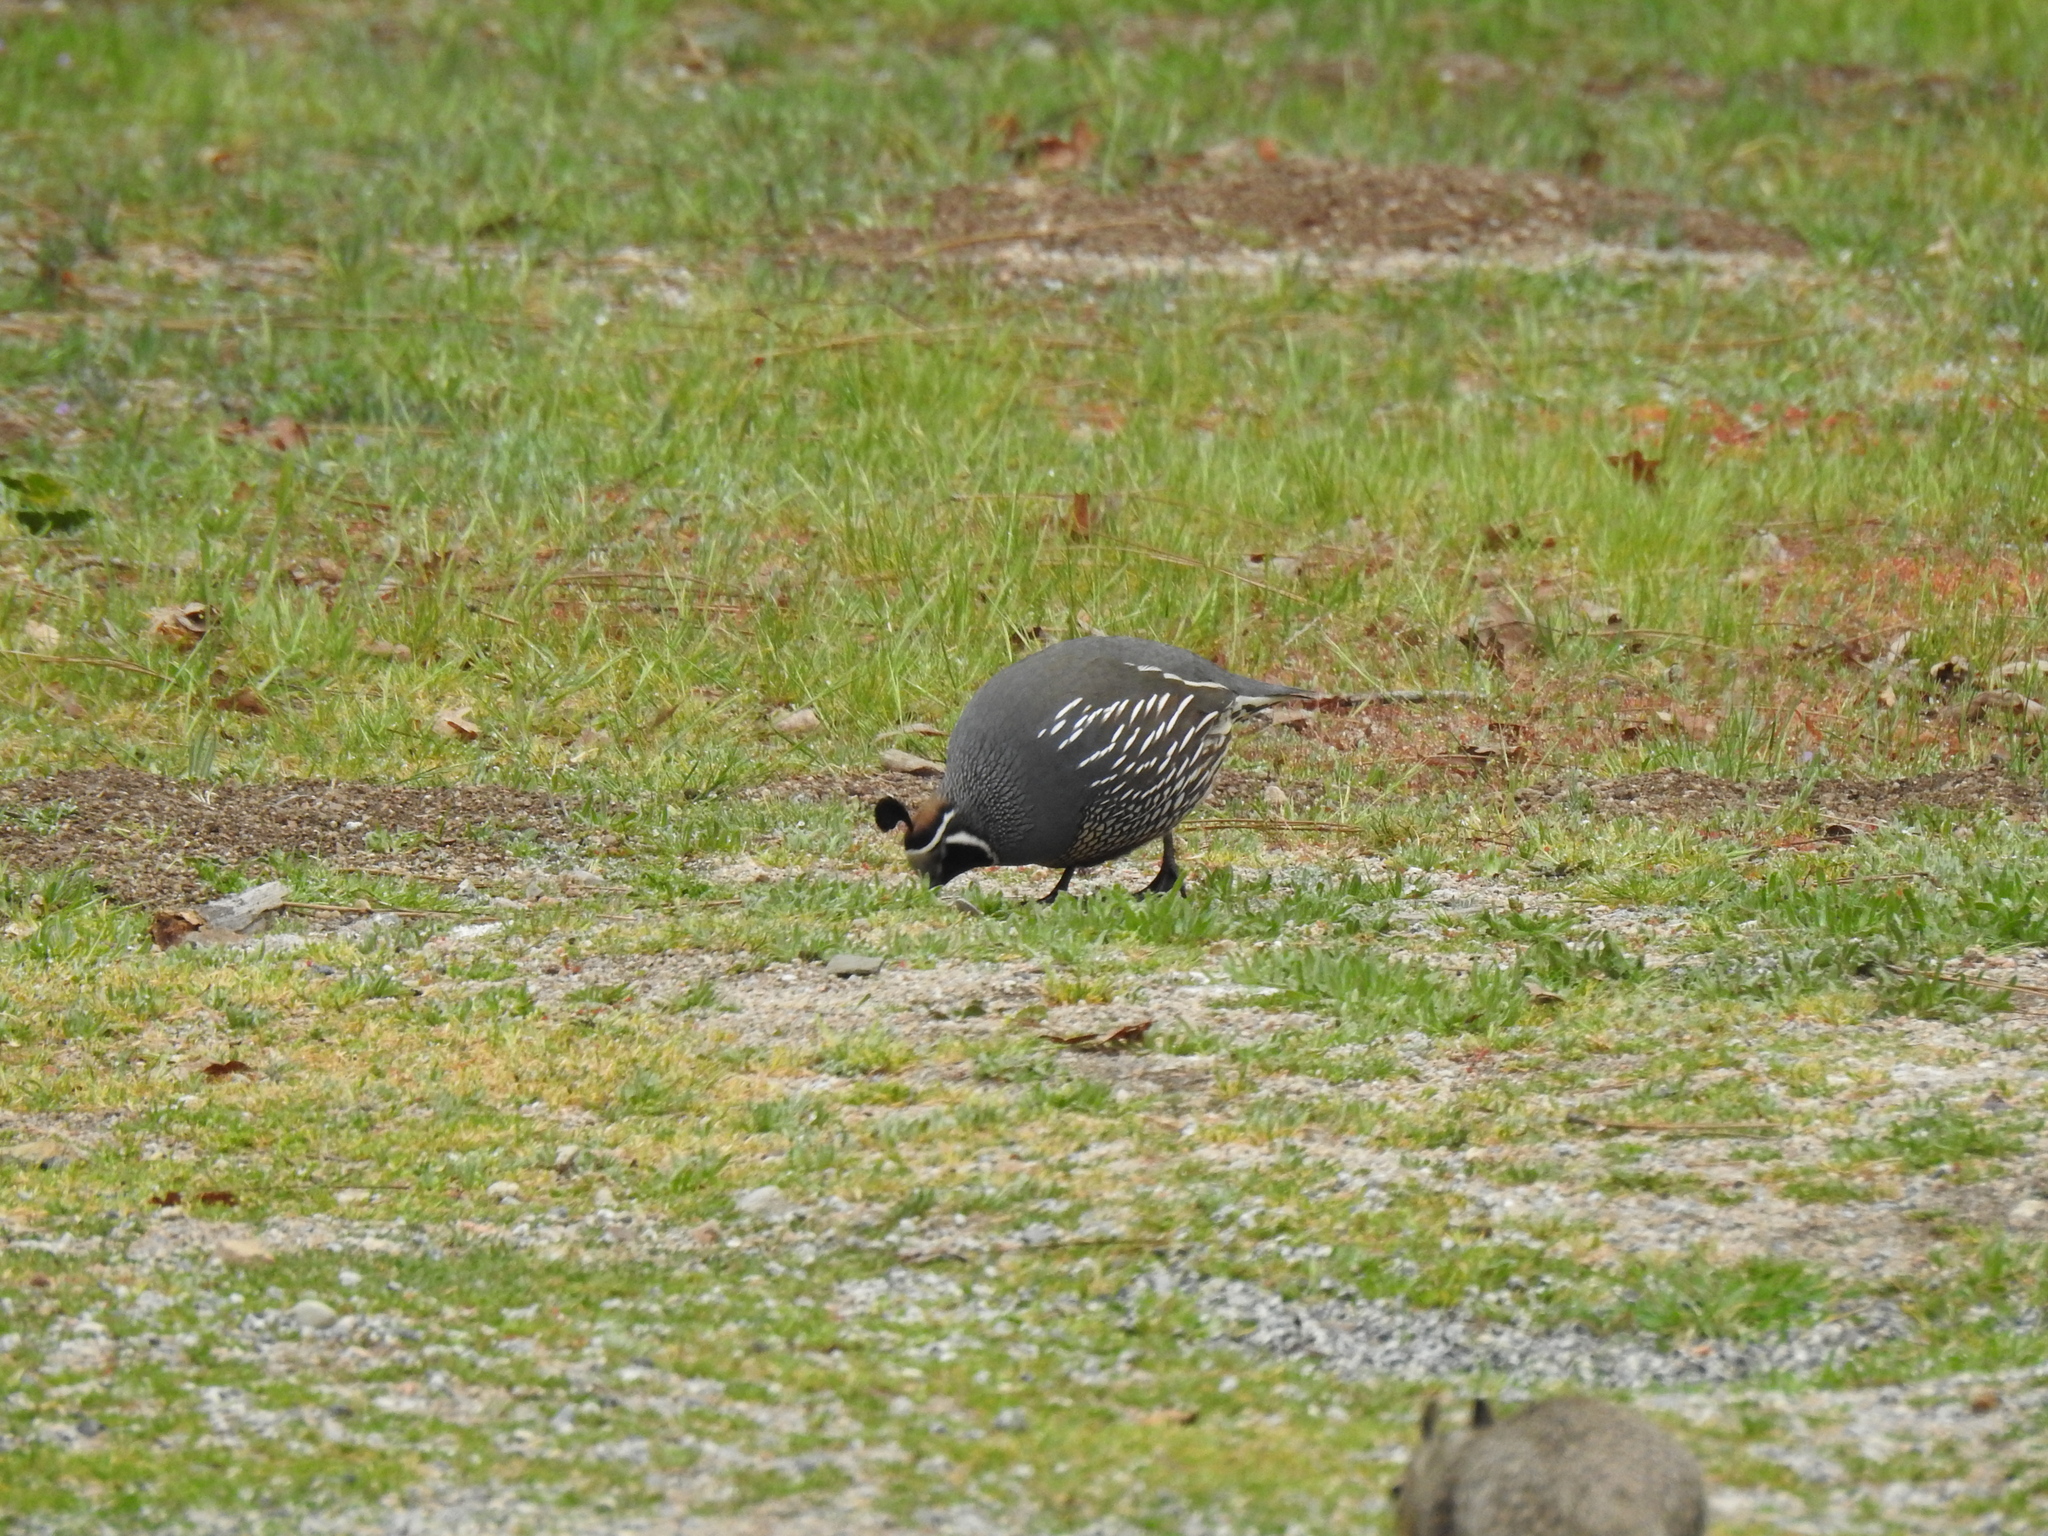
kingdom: Animalia
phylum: Chordata
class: Aves
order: Galliformes
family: Odontophoridae
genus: Callipepla
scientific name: Callipepla californica
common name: California quail
